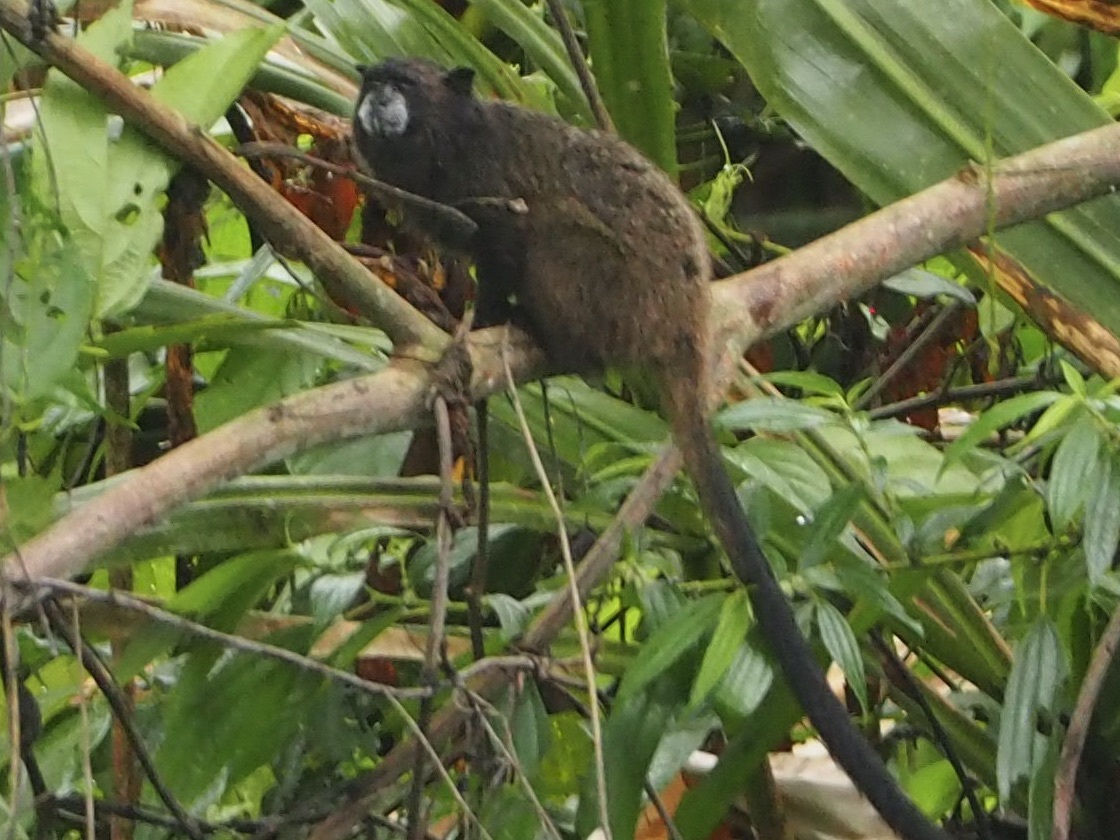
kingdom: Animalia
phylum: Chordata
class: Mammalia
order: Primates
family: Callitrichidae
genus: Leontocebus
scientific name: Leontocebus nigricollis
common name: Black-mantled tamarin
